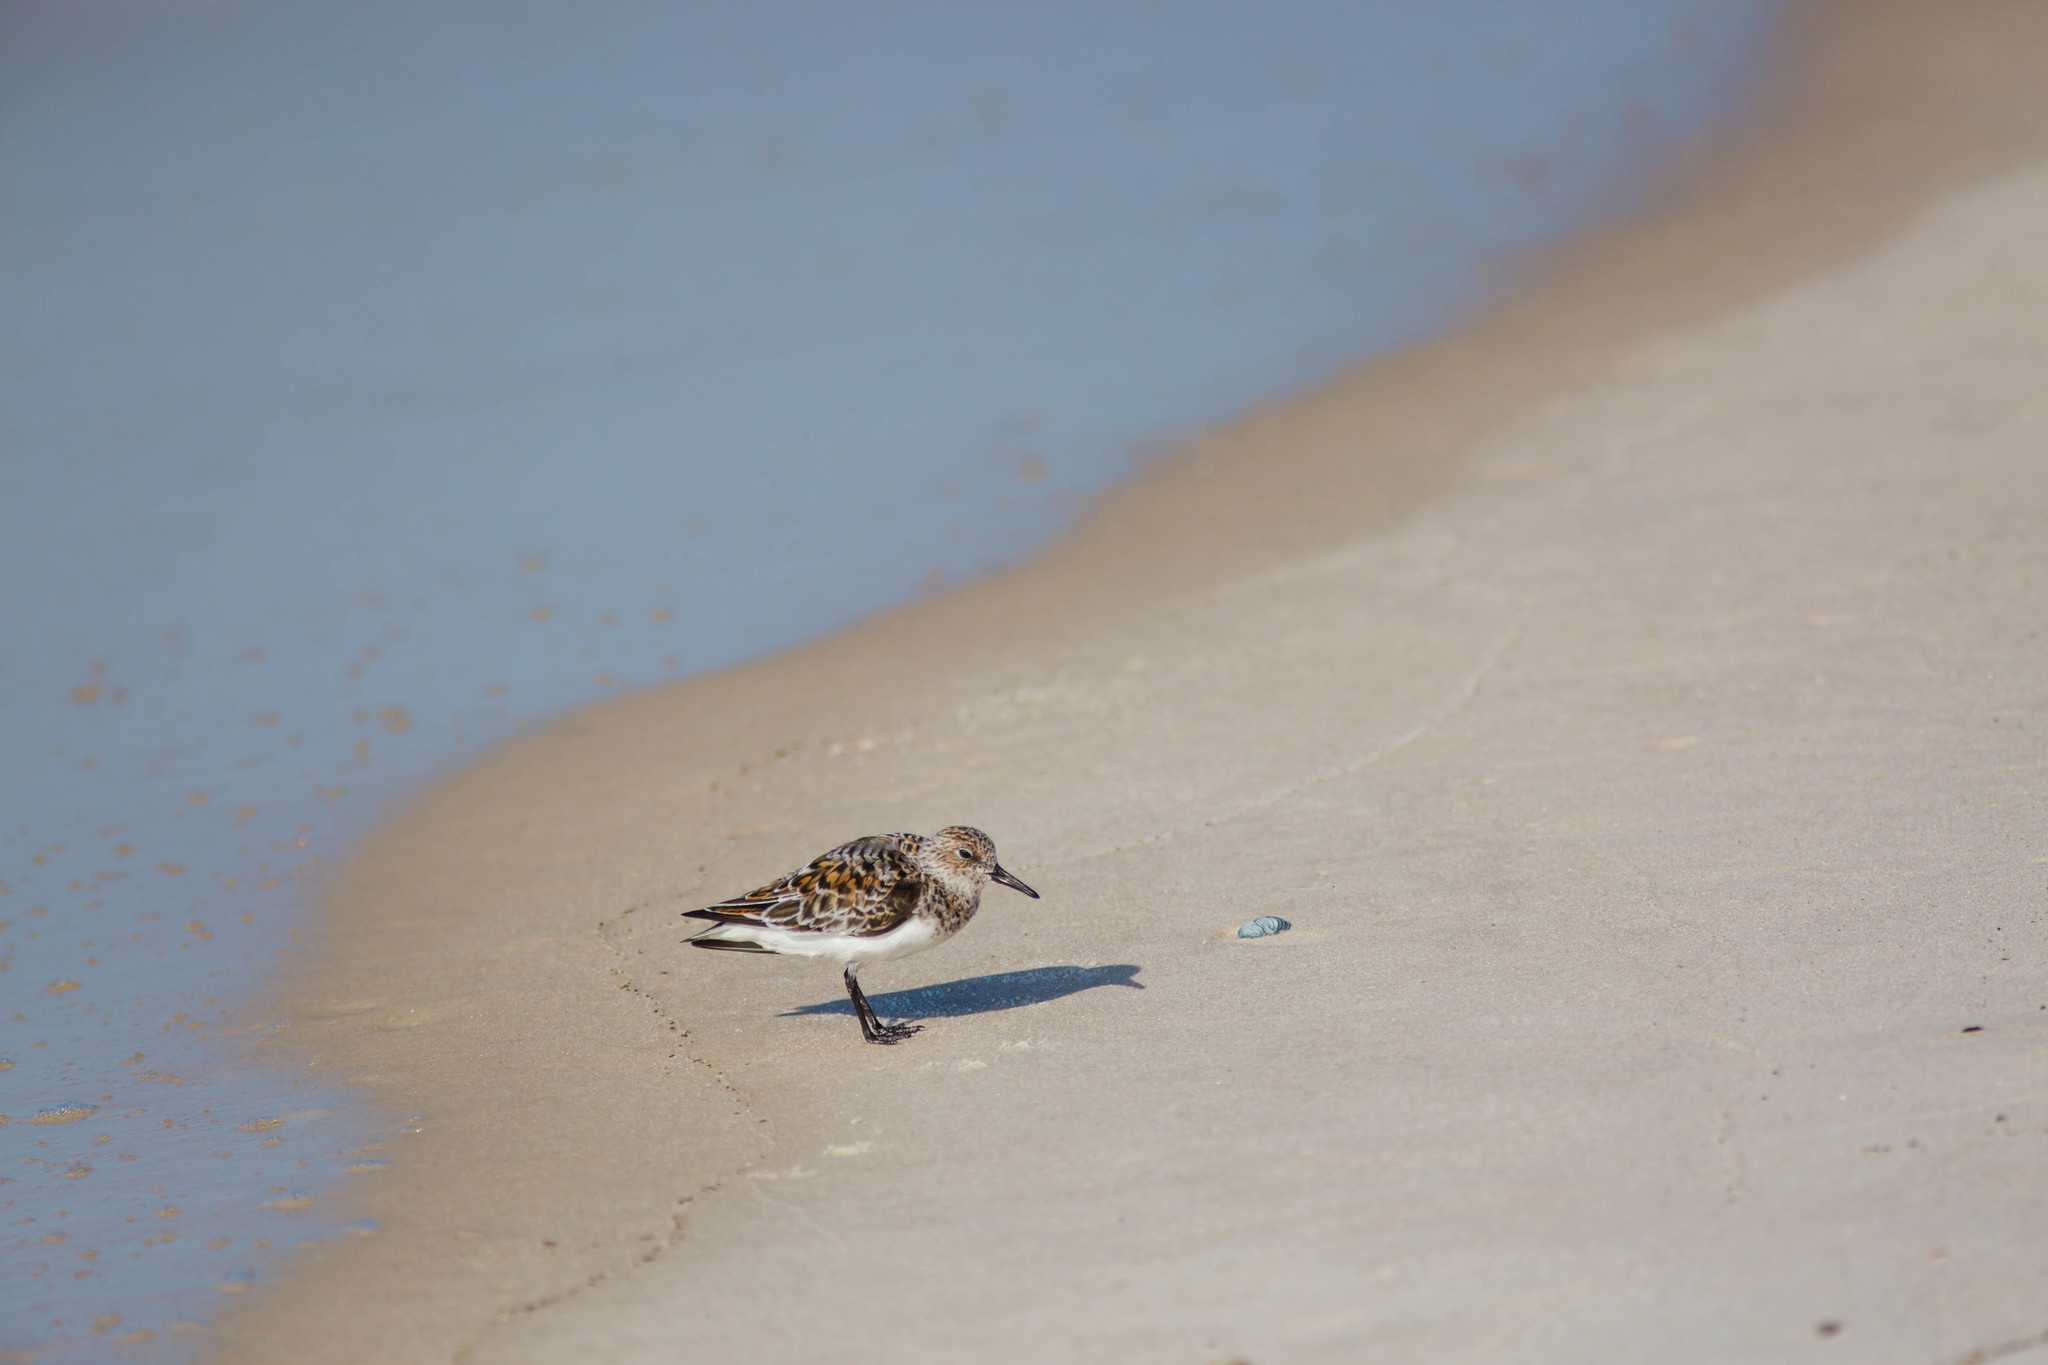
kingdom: Animalia
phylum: Chordata
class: Aves
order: Charadriiformes
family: Scolopacidae
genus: Calidris
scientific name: Calidris alba
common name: Sanderling
